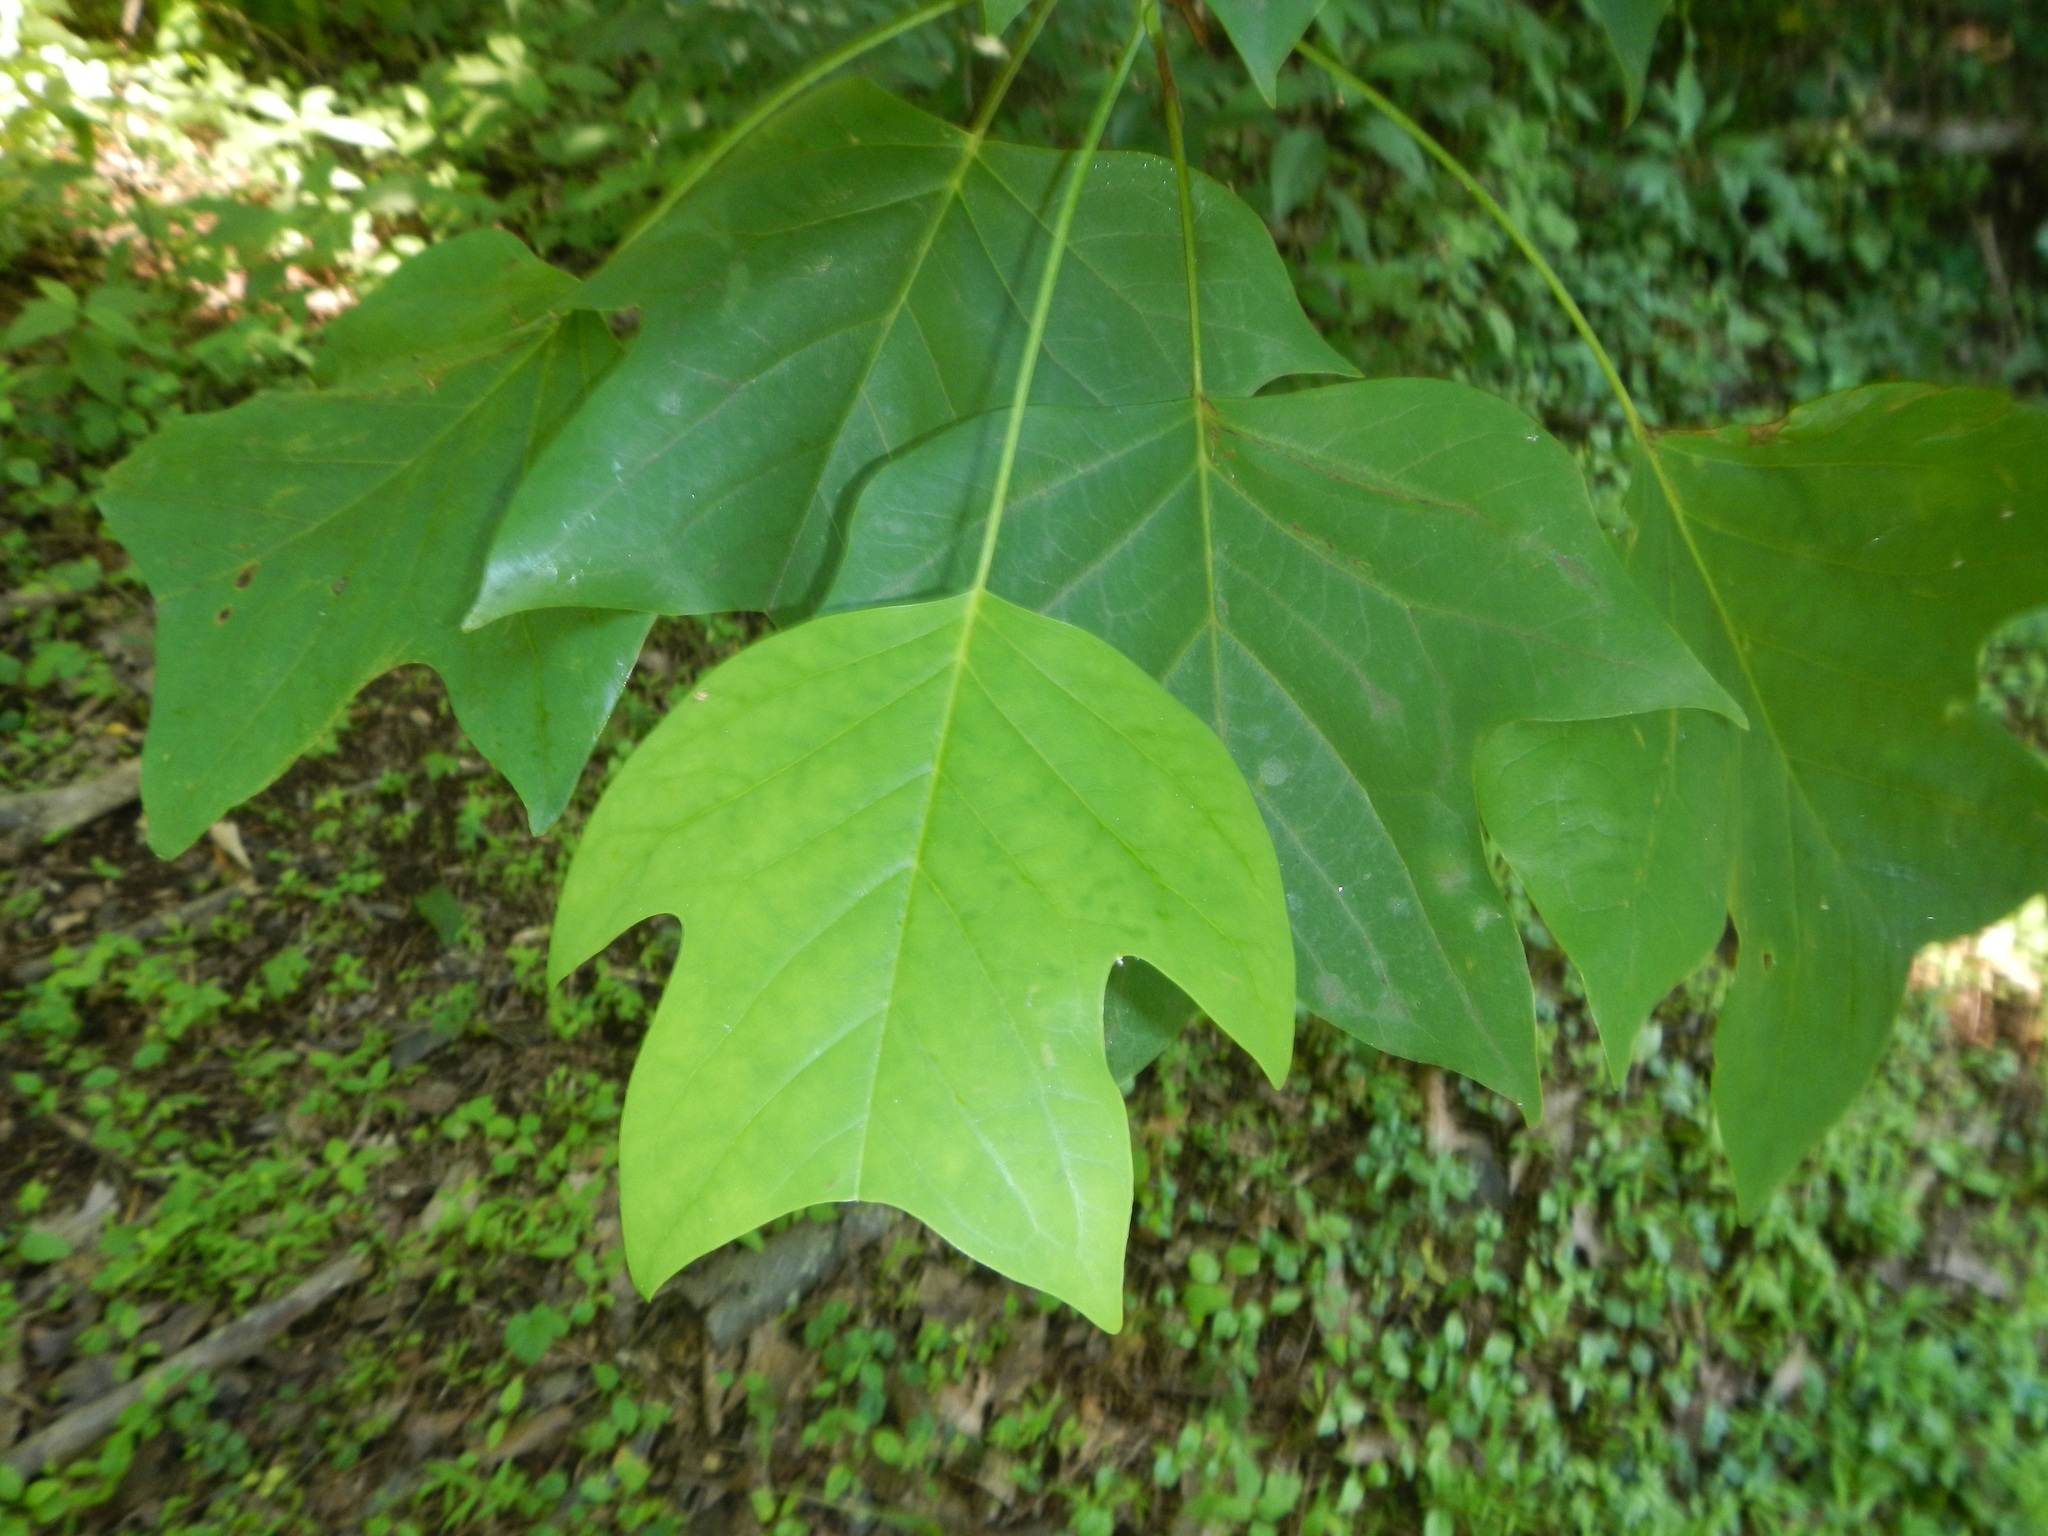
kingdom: Plantae
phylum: Tracheophyta
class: Magnoliopsida
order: Magnoliales
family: Magnoliaceae
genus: Liriodendron
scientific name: Liriodendron tulipifera
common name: Tulip tree
